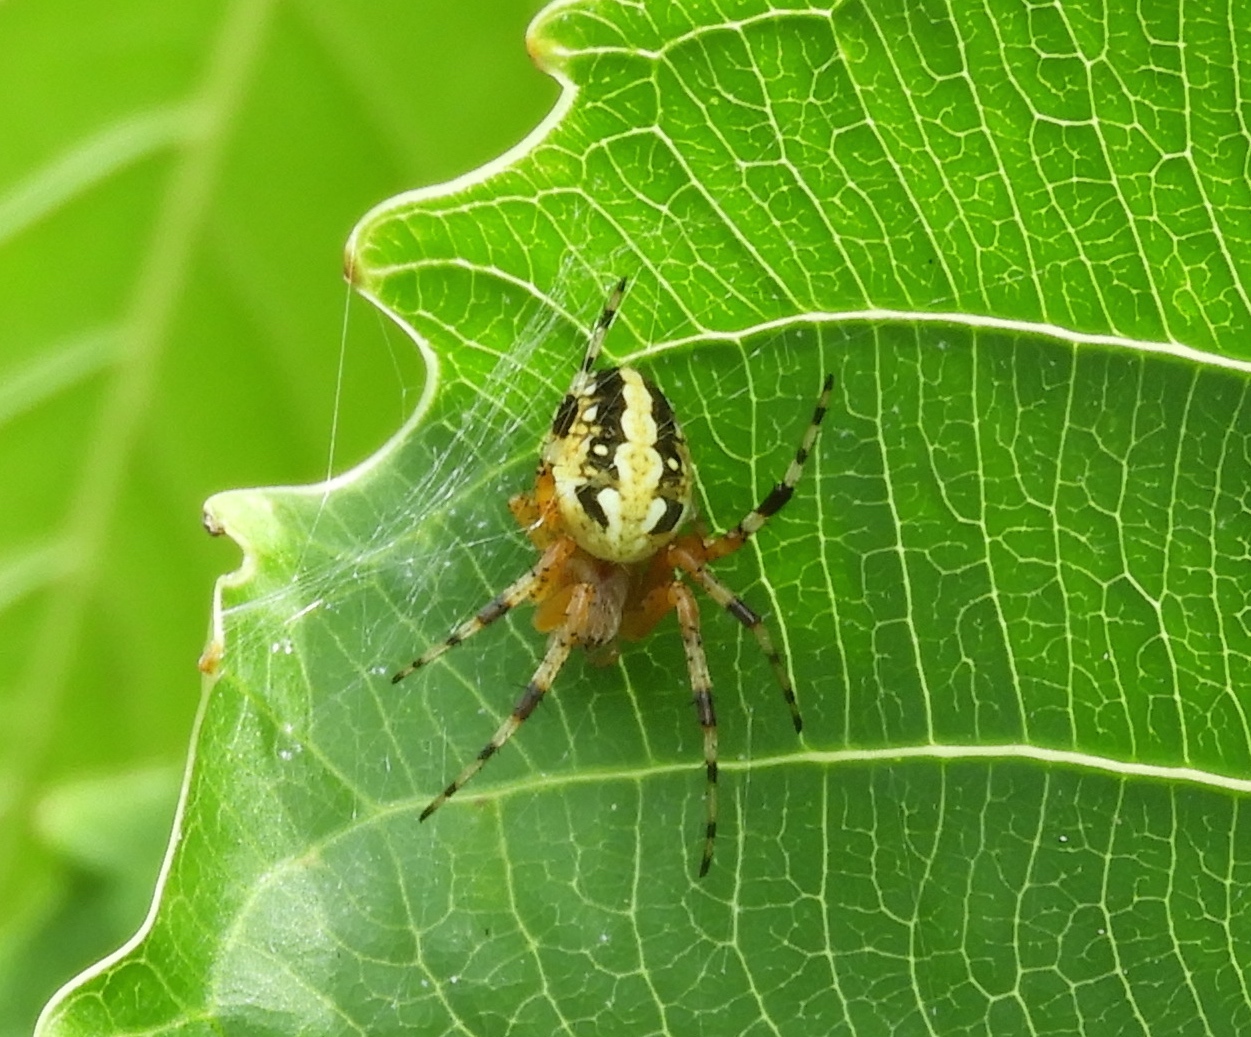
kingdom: Animalia
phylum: Arthropoda
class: Arachnida
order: Araneae
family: Araneidae
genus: Neoscona
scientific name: Neoscona oaxacensis
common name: Orb weavers
